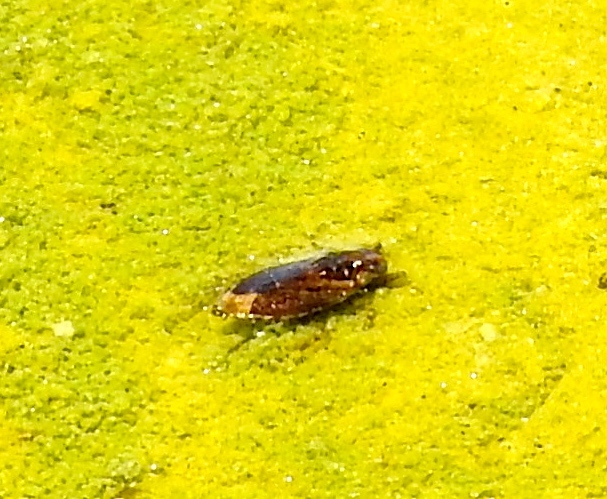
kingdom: Animalia
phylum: Arthropoda
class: Insecta
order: Hemiptera
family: Belostomatidae
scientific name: Belostomatidae
